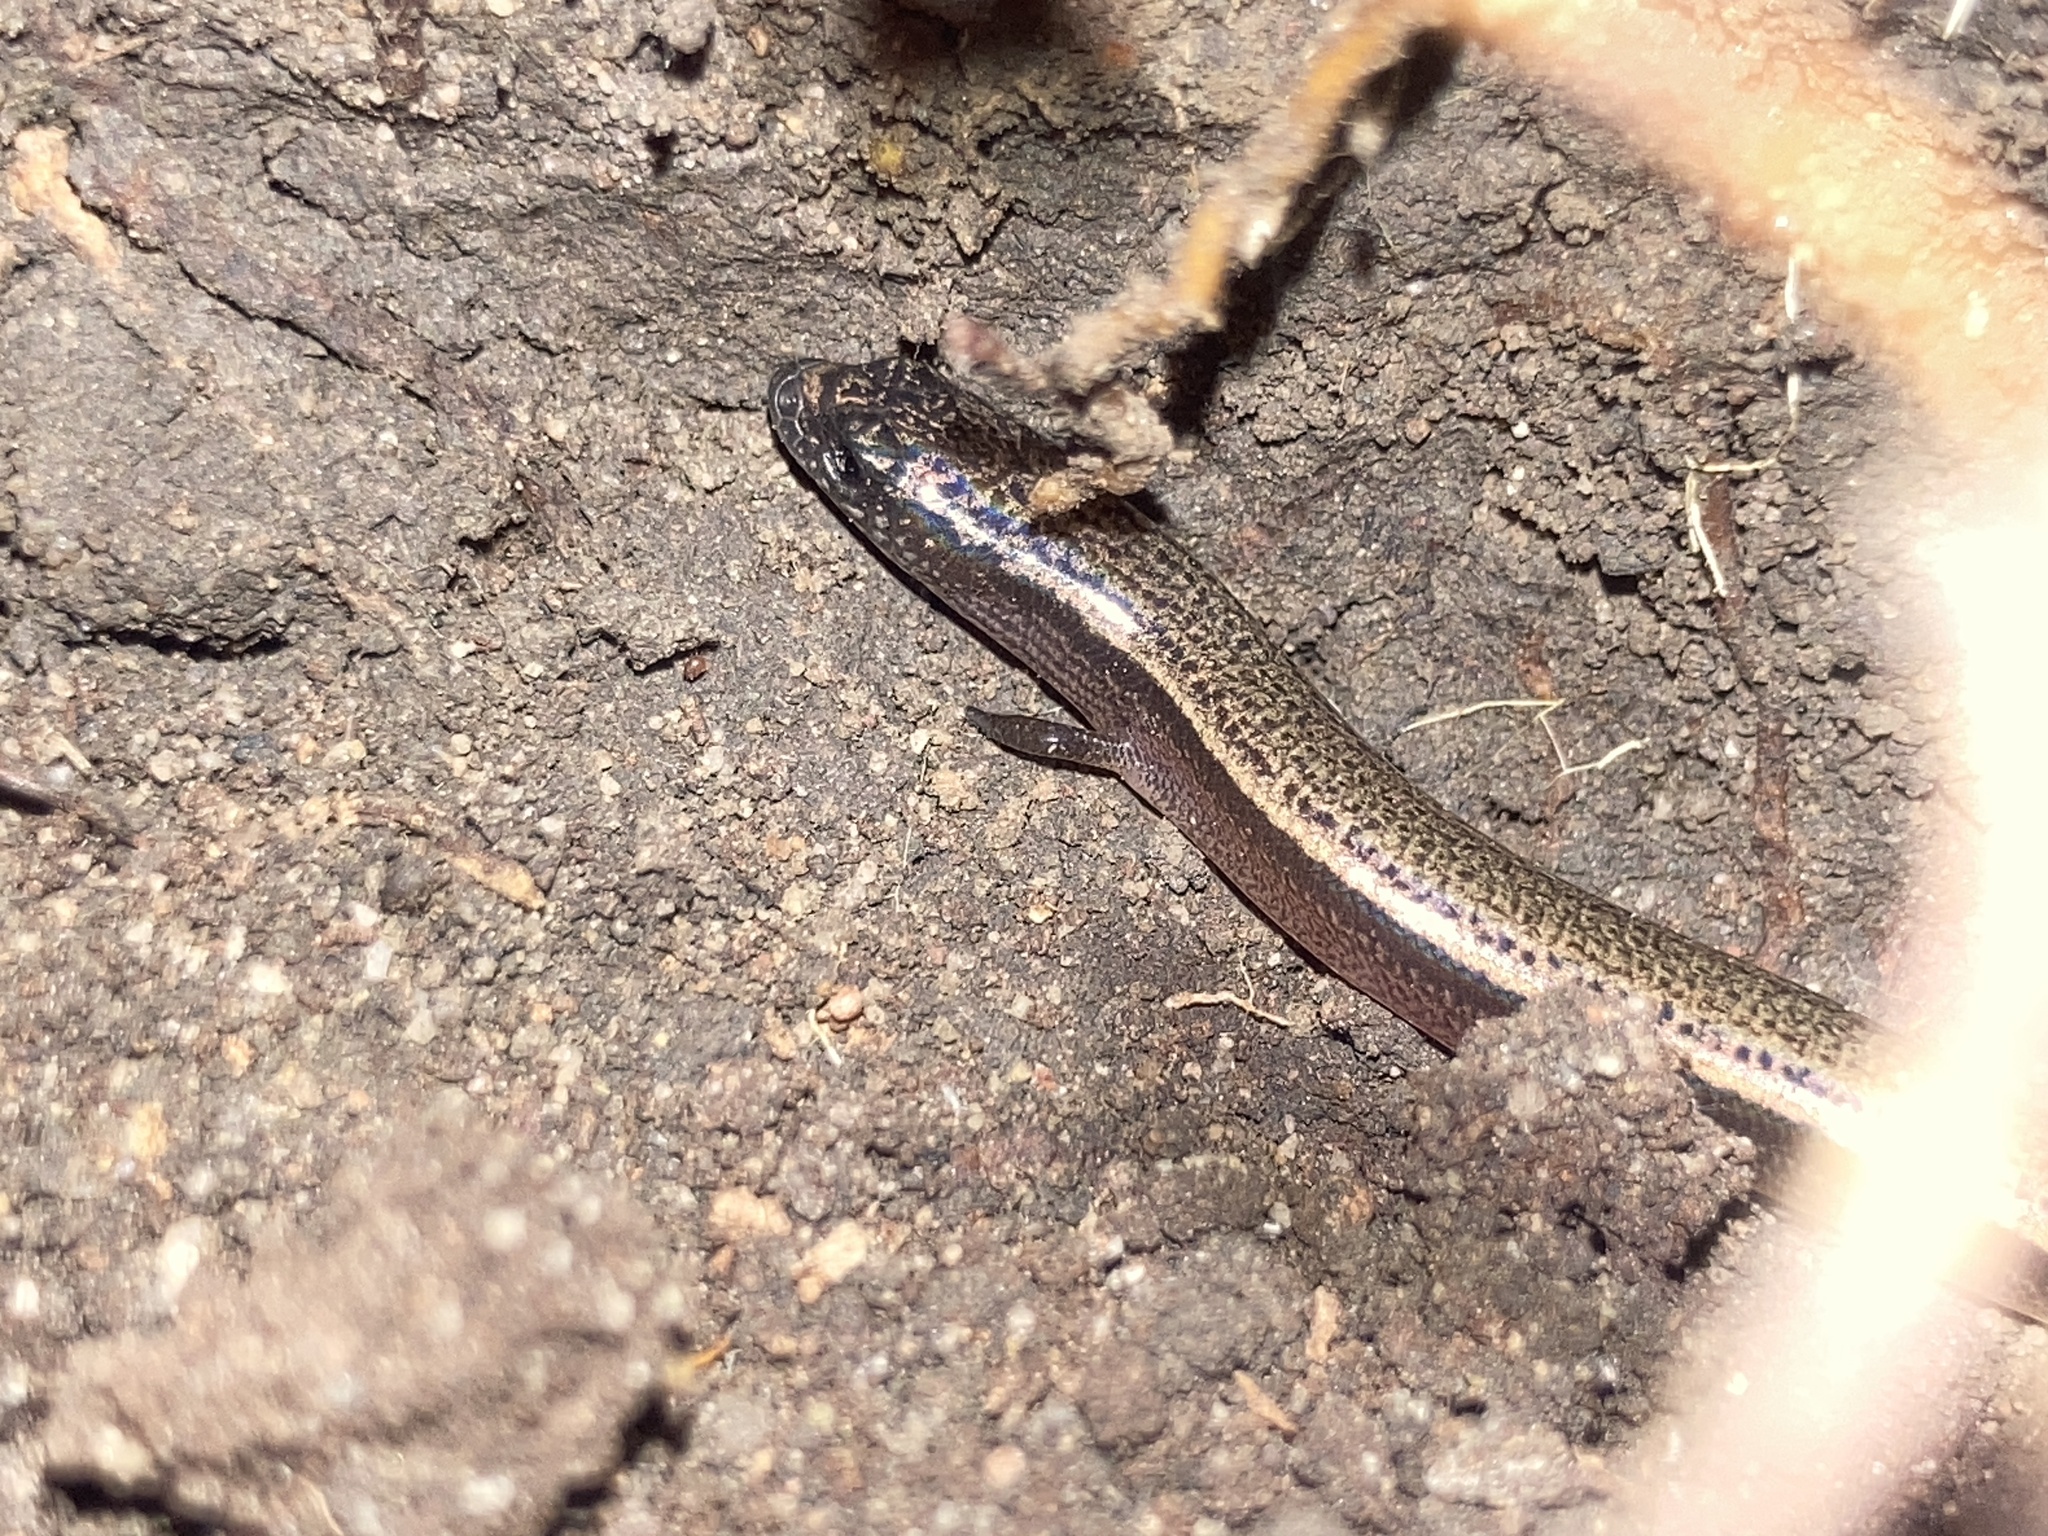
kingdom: Animalia
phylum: Chordata
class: Squamata
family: Scincidae
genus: Saiphos
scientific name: Saiphos equalis
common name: Three-toed skink
